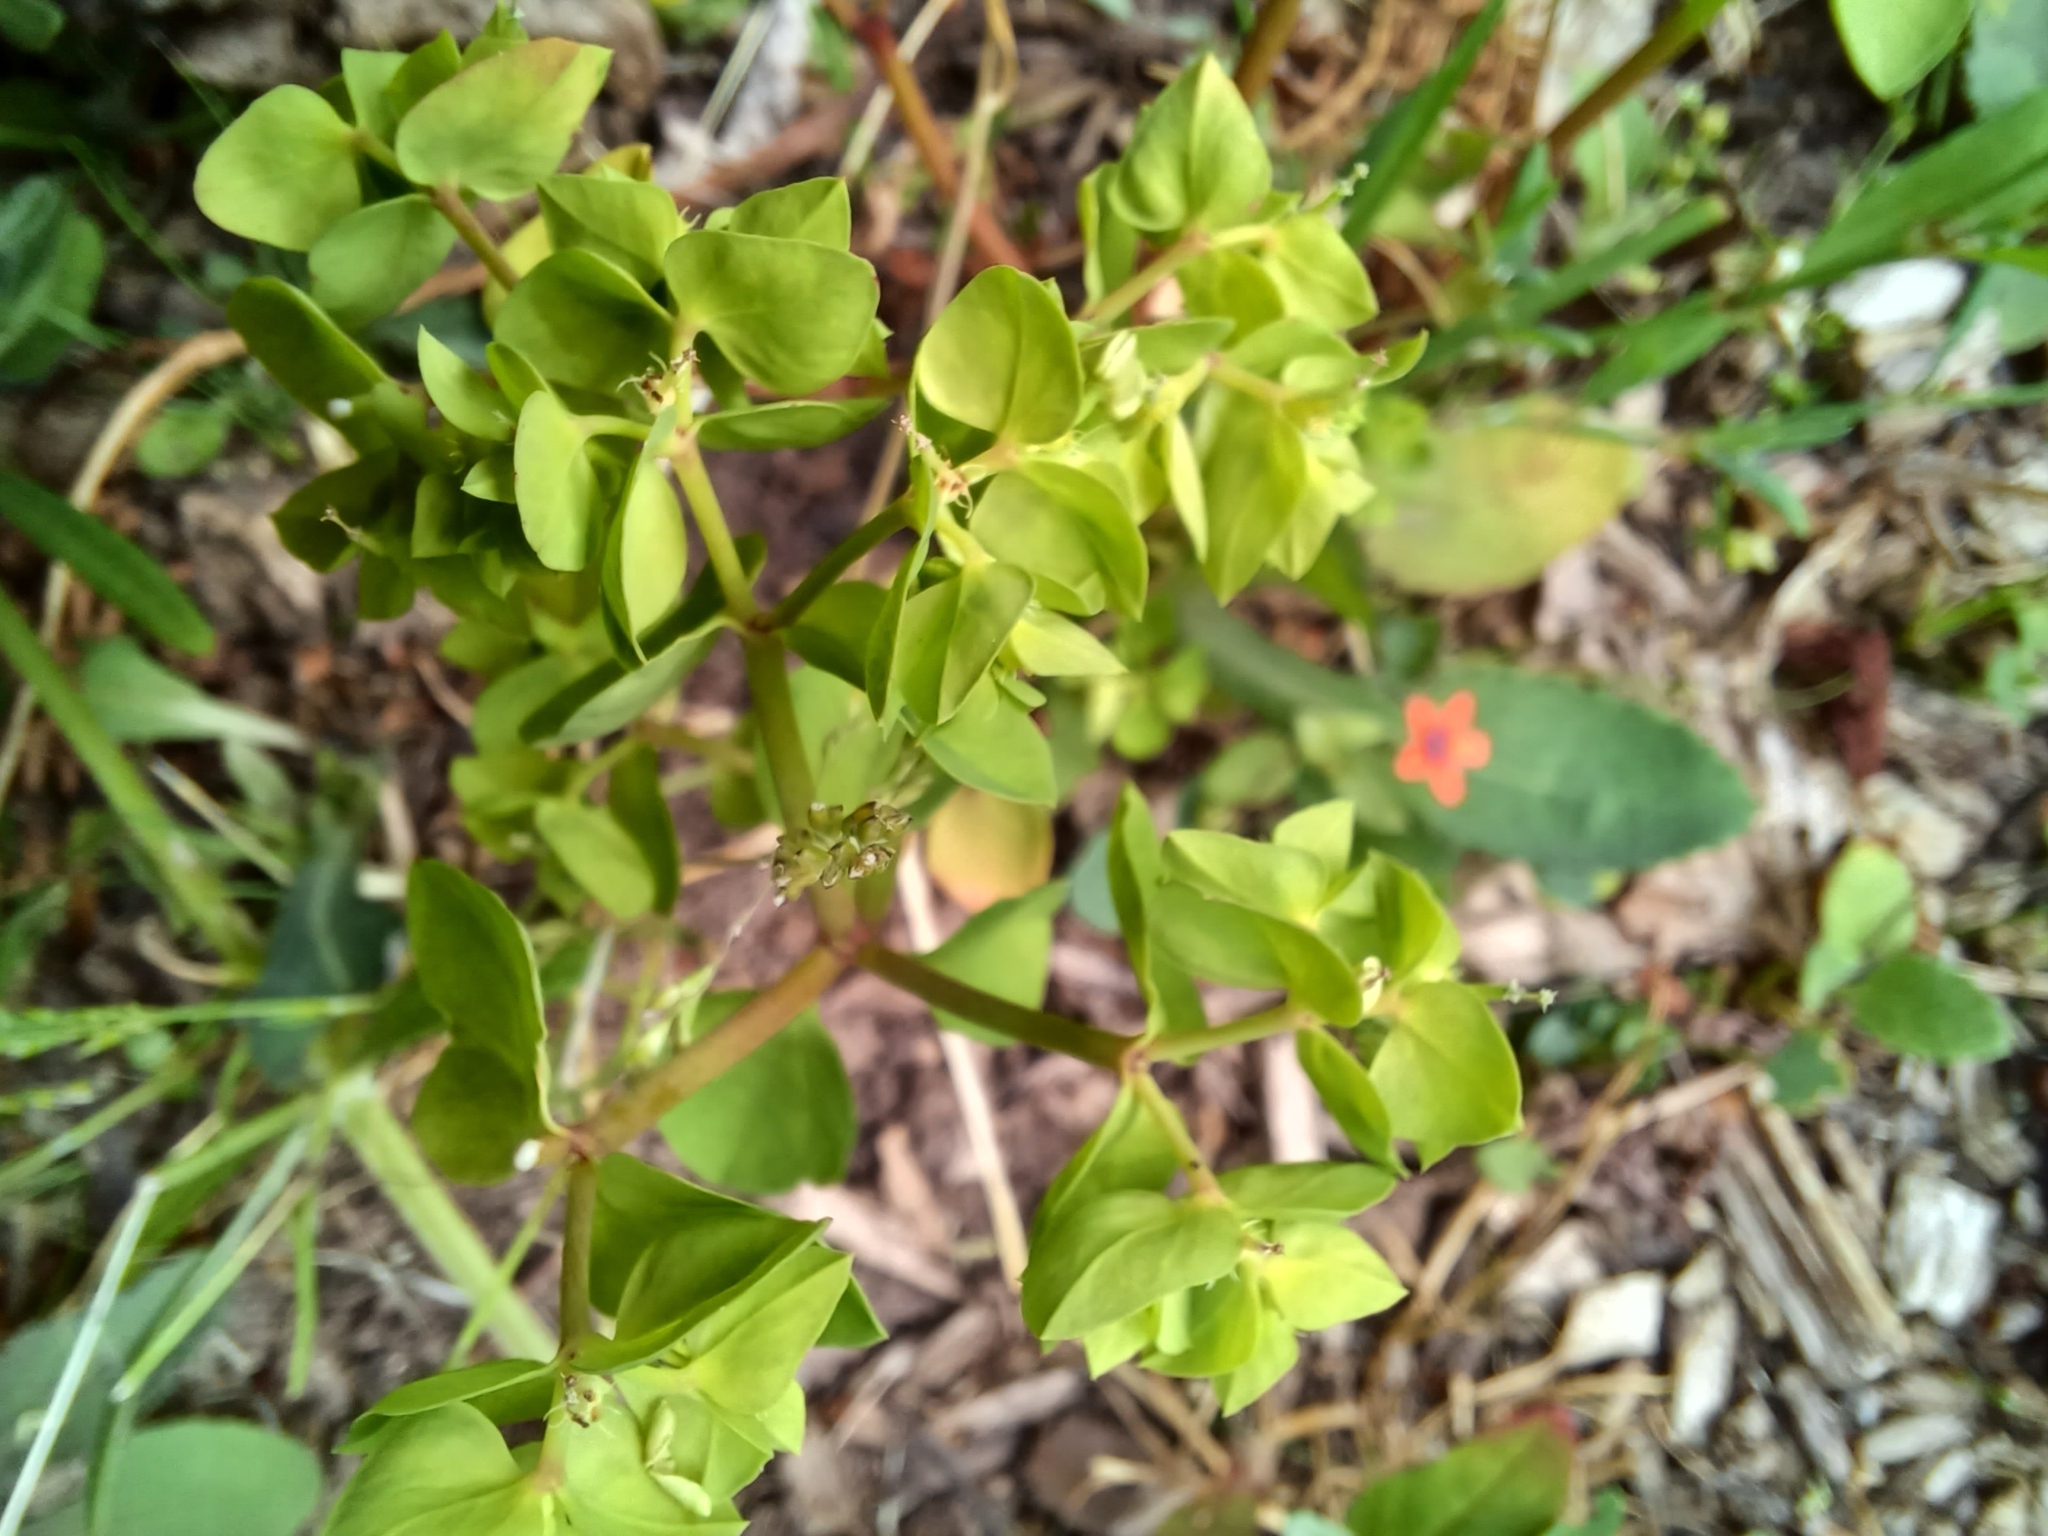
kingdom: Plantae
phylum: Tracheophyta
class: Magnoliopsida
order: Malpighiales
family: Euphorbiaceae
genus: Euphorbia
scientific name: Euphorbia peplus
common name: Petty spurge
